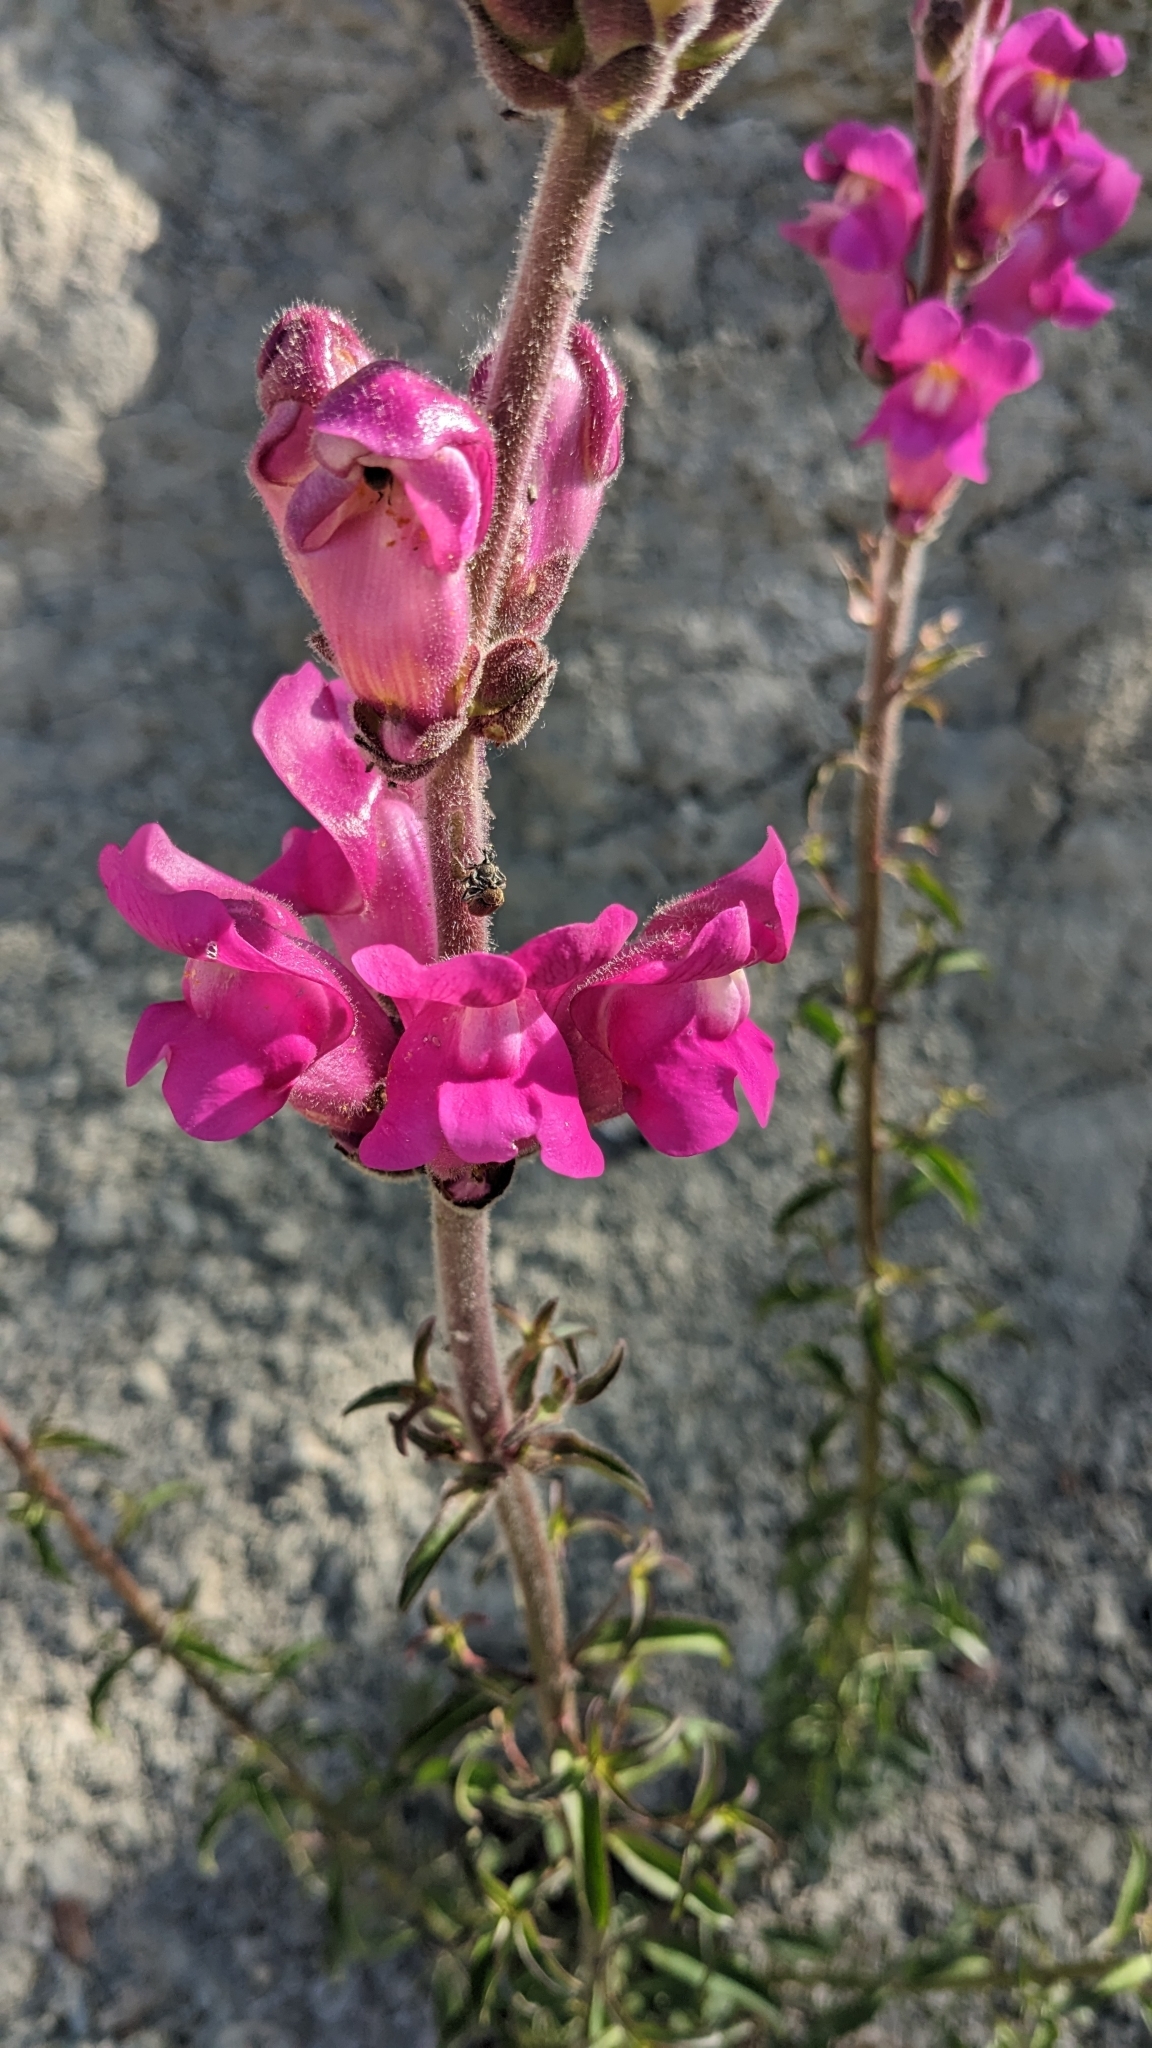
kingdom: Plantae
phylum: Tracheophyta
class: Magnoliopsida
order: Lamiales
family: Plantaginaceae
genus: Antirrhinum
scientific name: Antirrhinum majus
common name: Snapdragon
